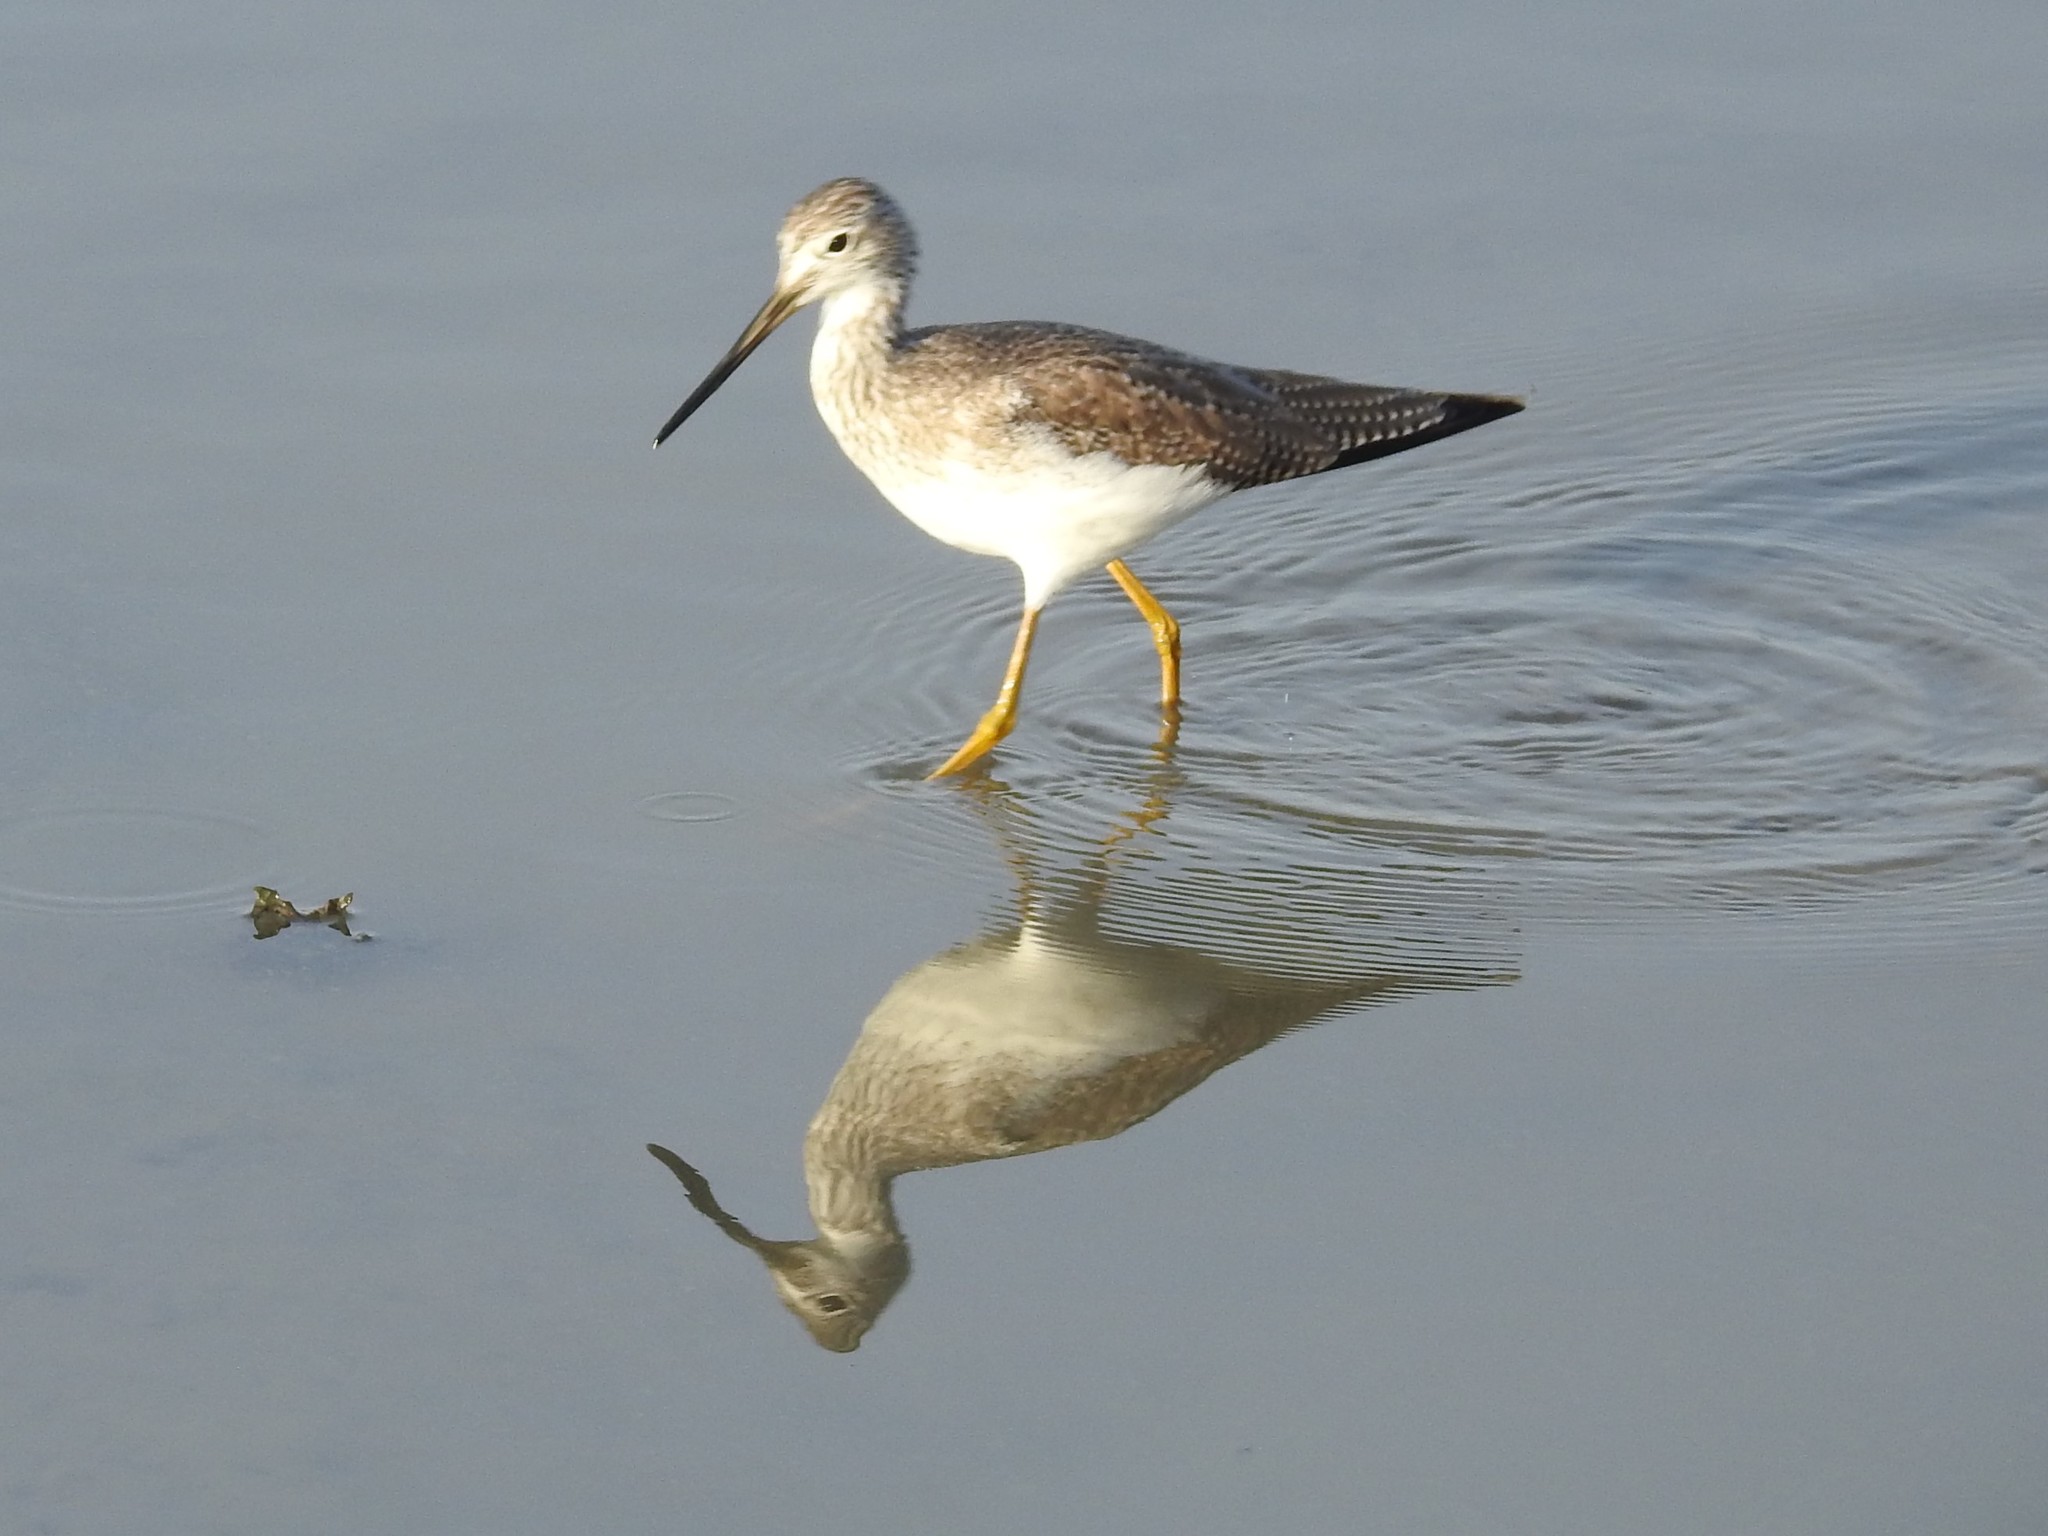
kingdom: Animalia
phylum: Chordata
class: Aves
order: Charadriiformes
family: Scolopacidae
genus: Tringa
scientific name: Tringa melanoleuca
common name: Greater yellowlegs
